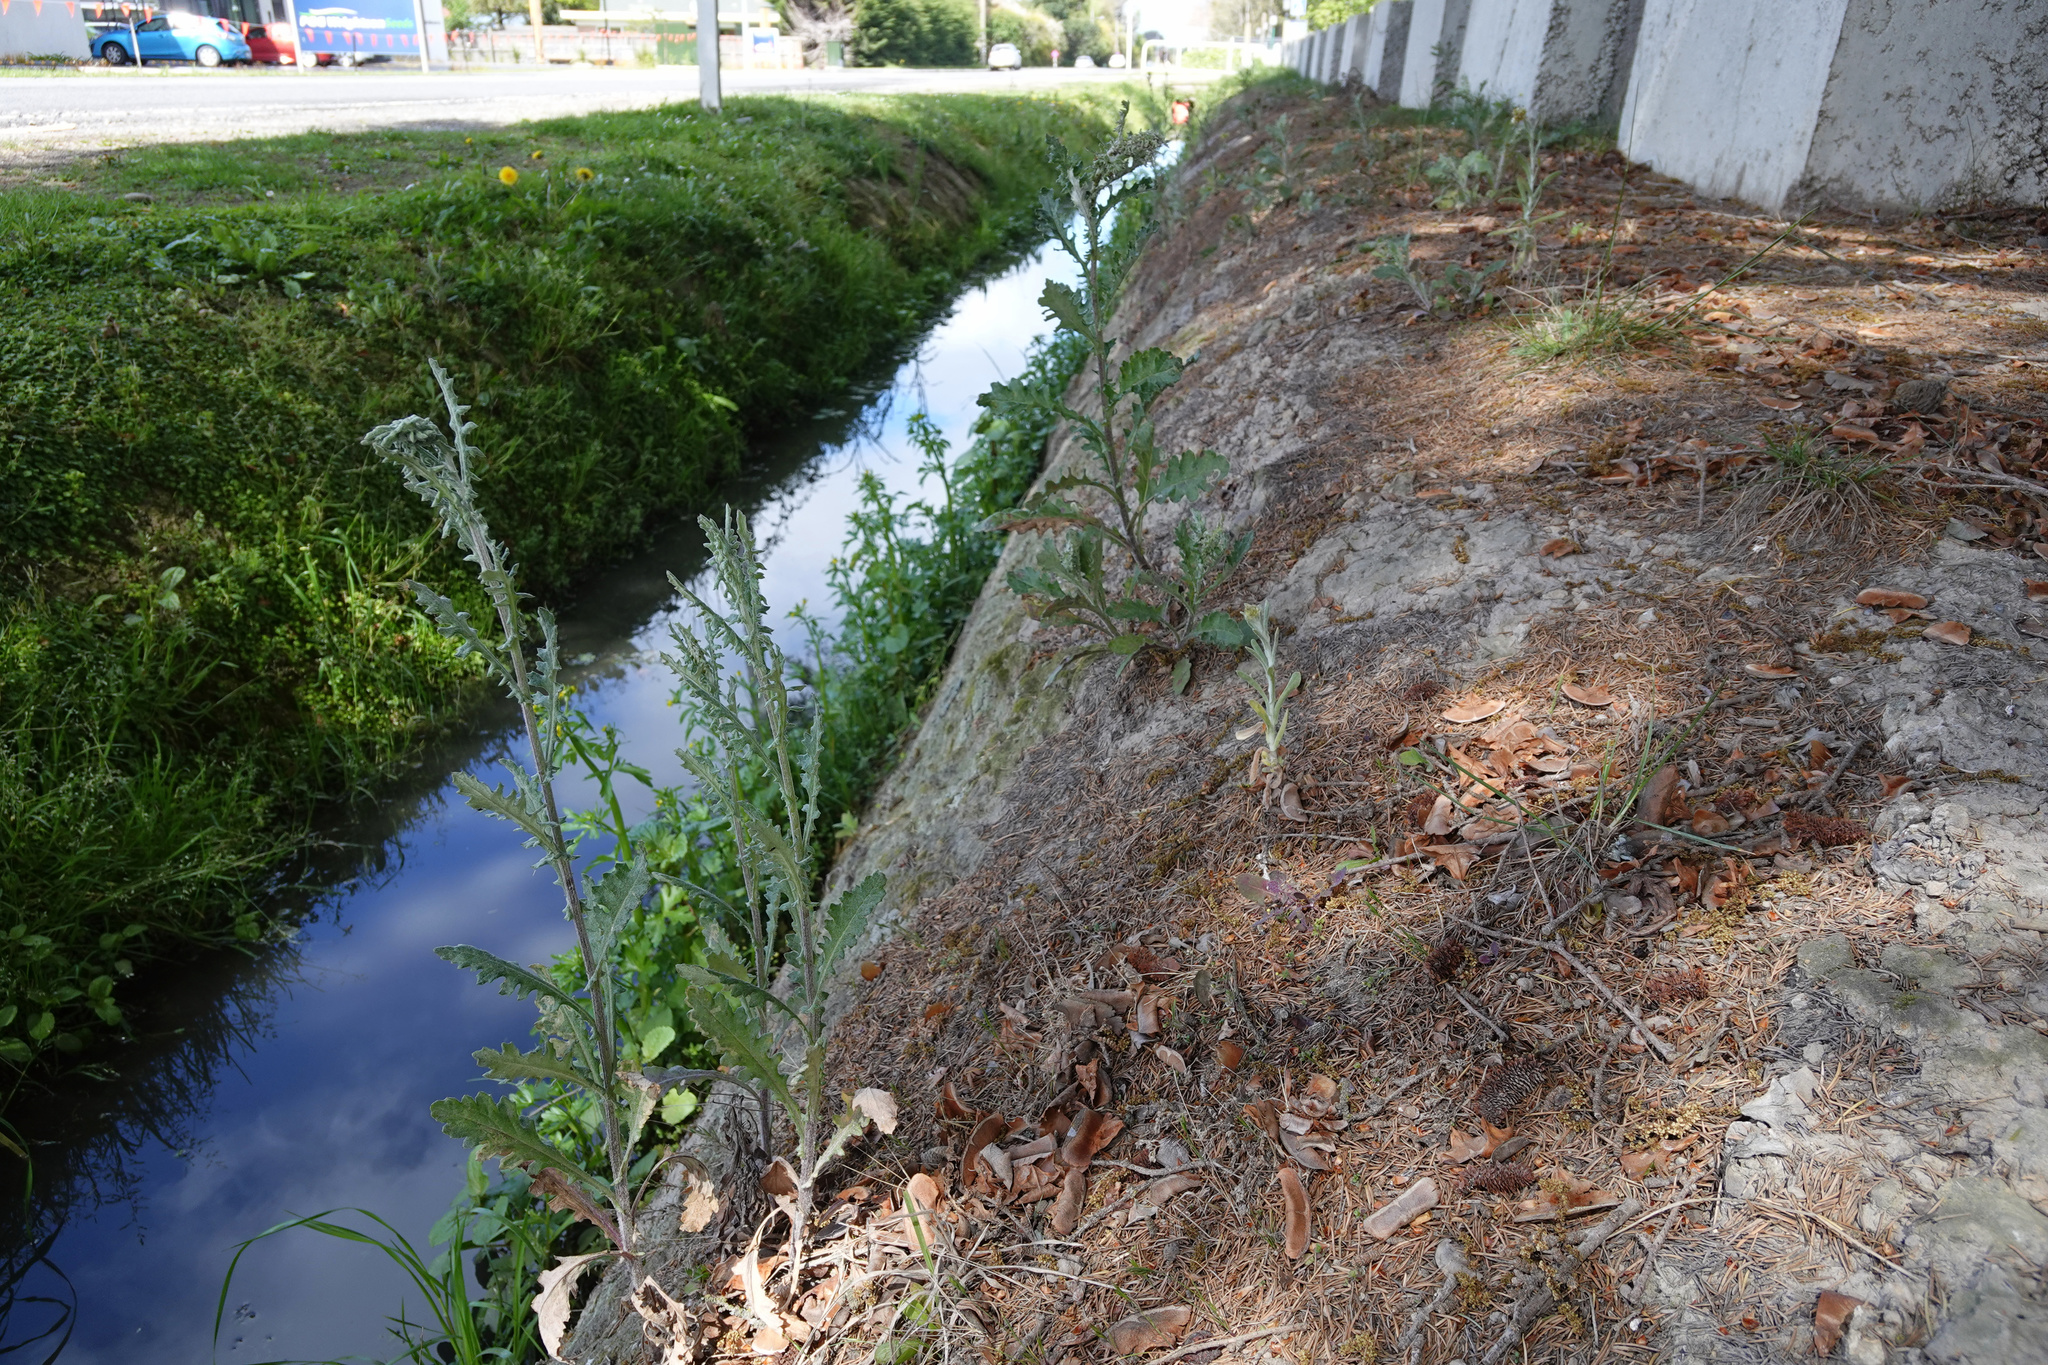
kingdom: Plantae
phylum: Tracheophyta
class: Magnoliopsida
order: Asterales
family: Asteraceae
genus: Senecio
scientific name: Senecio glomeratus
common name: Cutleaf burnweed
